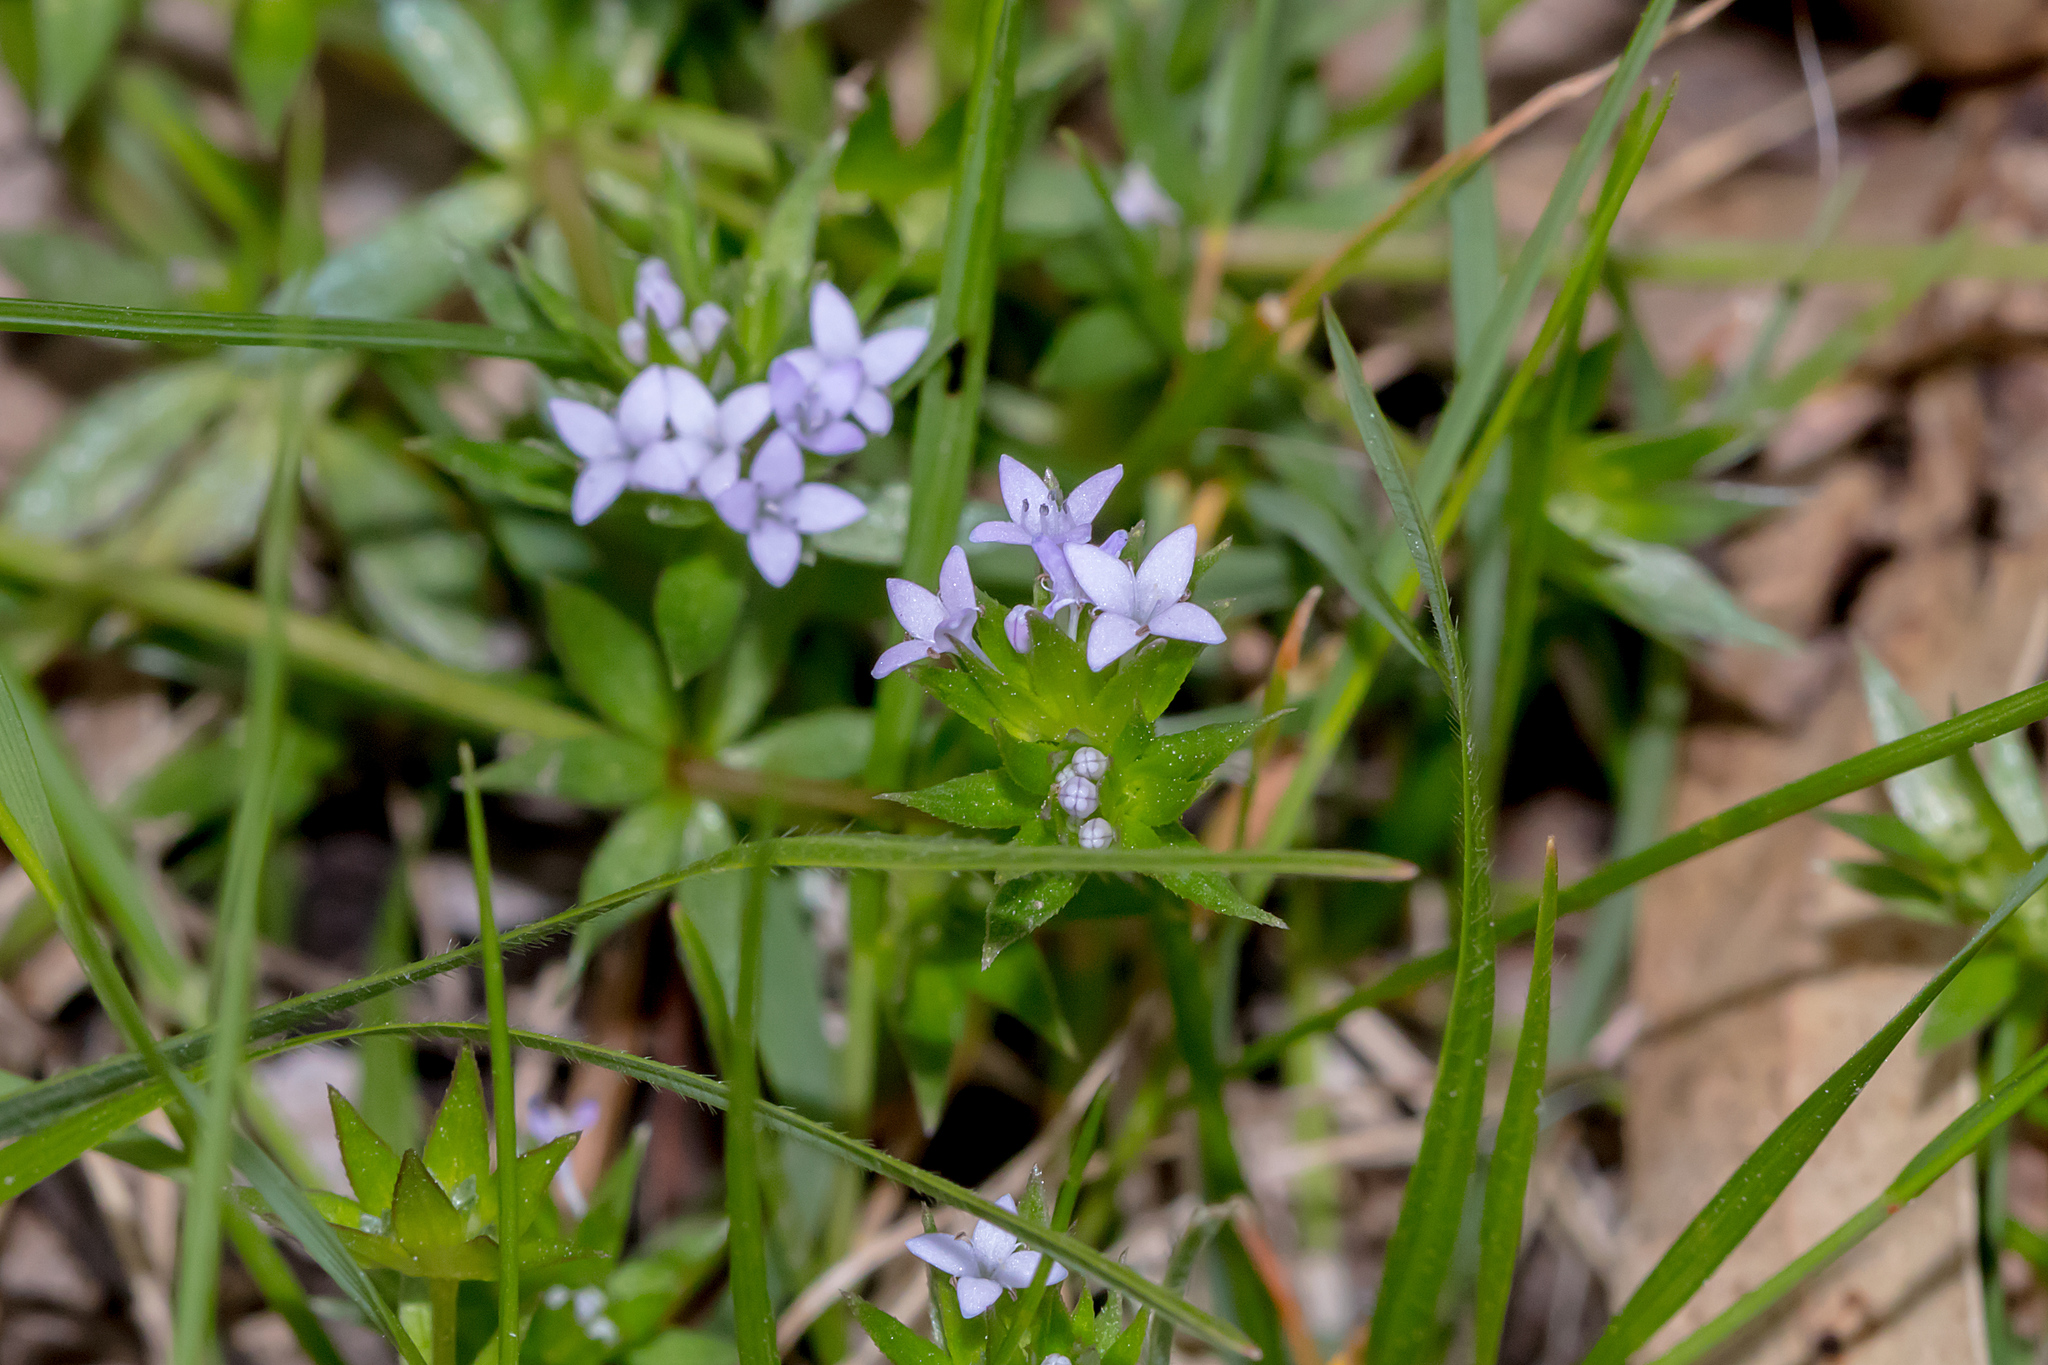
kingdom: Plantae
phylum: Tracheophyta
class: Magnoliopsida
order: Gentianales
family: Rubiaceae
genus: Sherardia
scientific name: Sherardia arvensis
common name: Field madder
